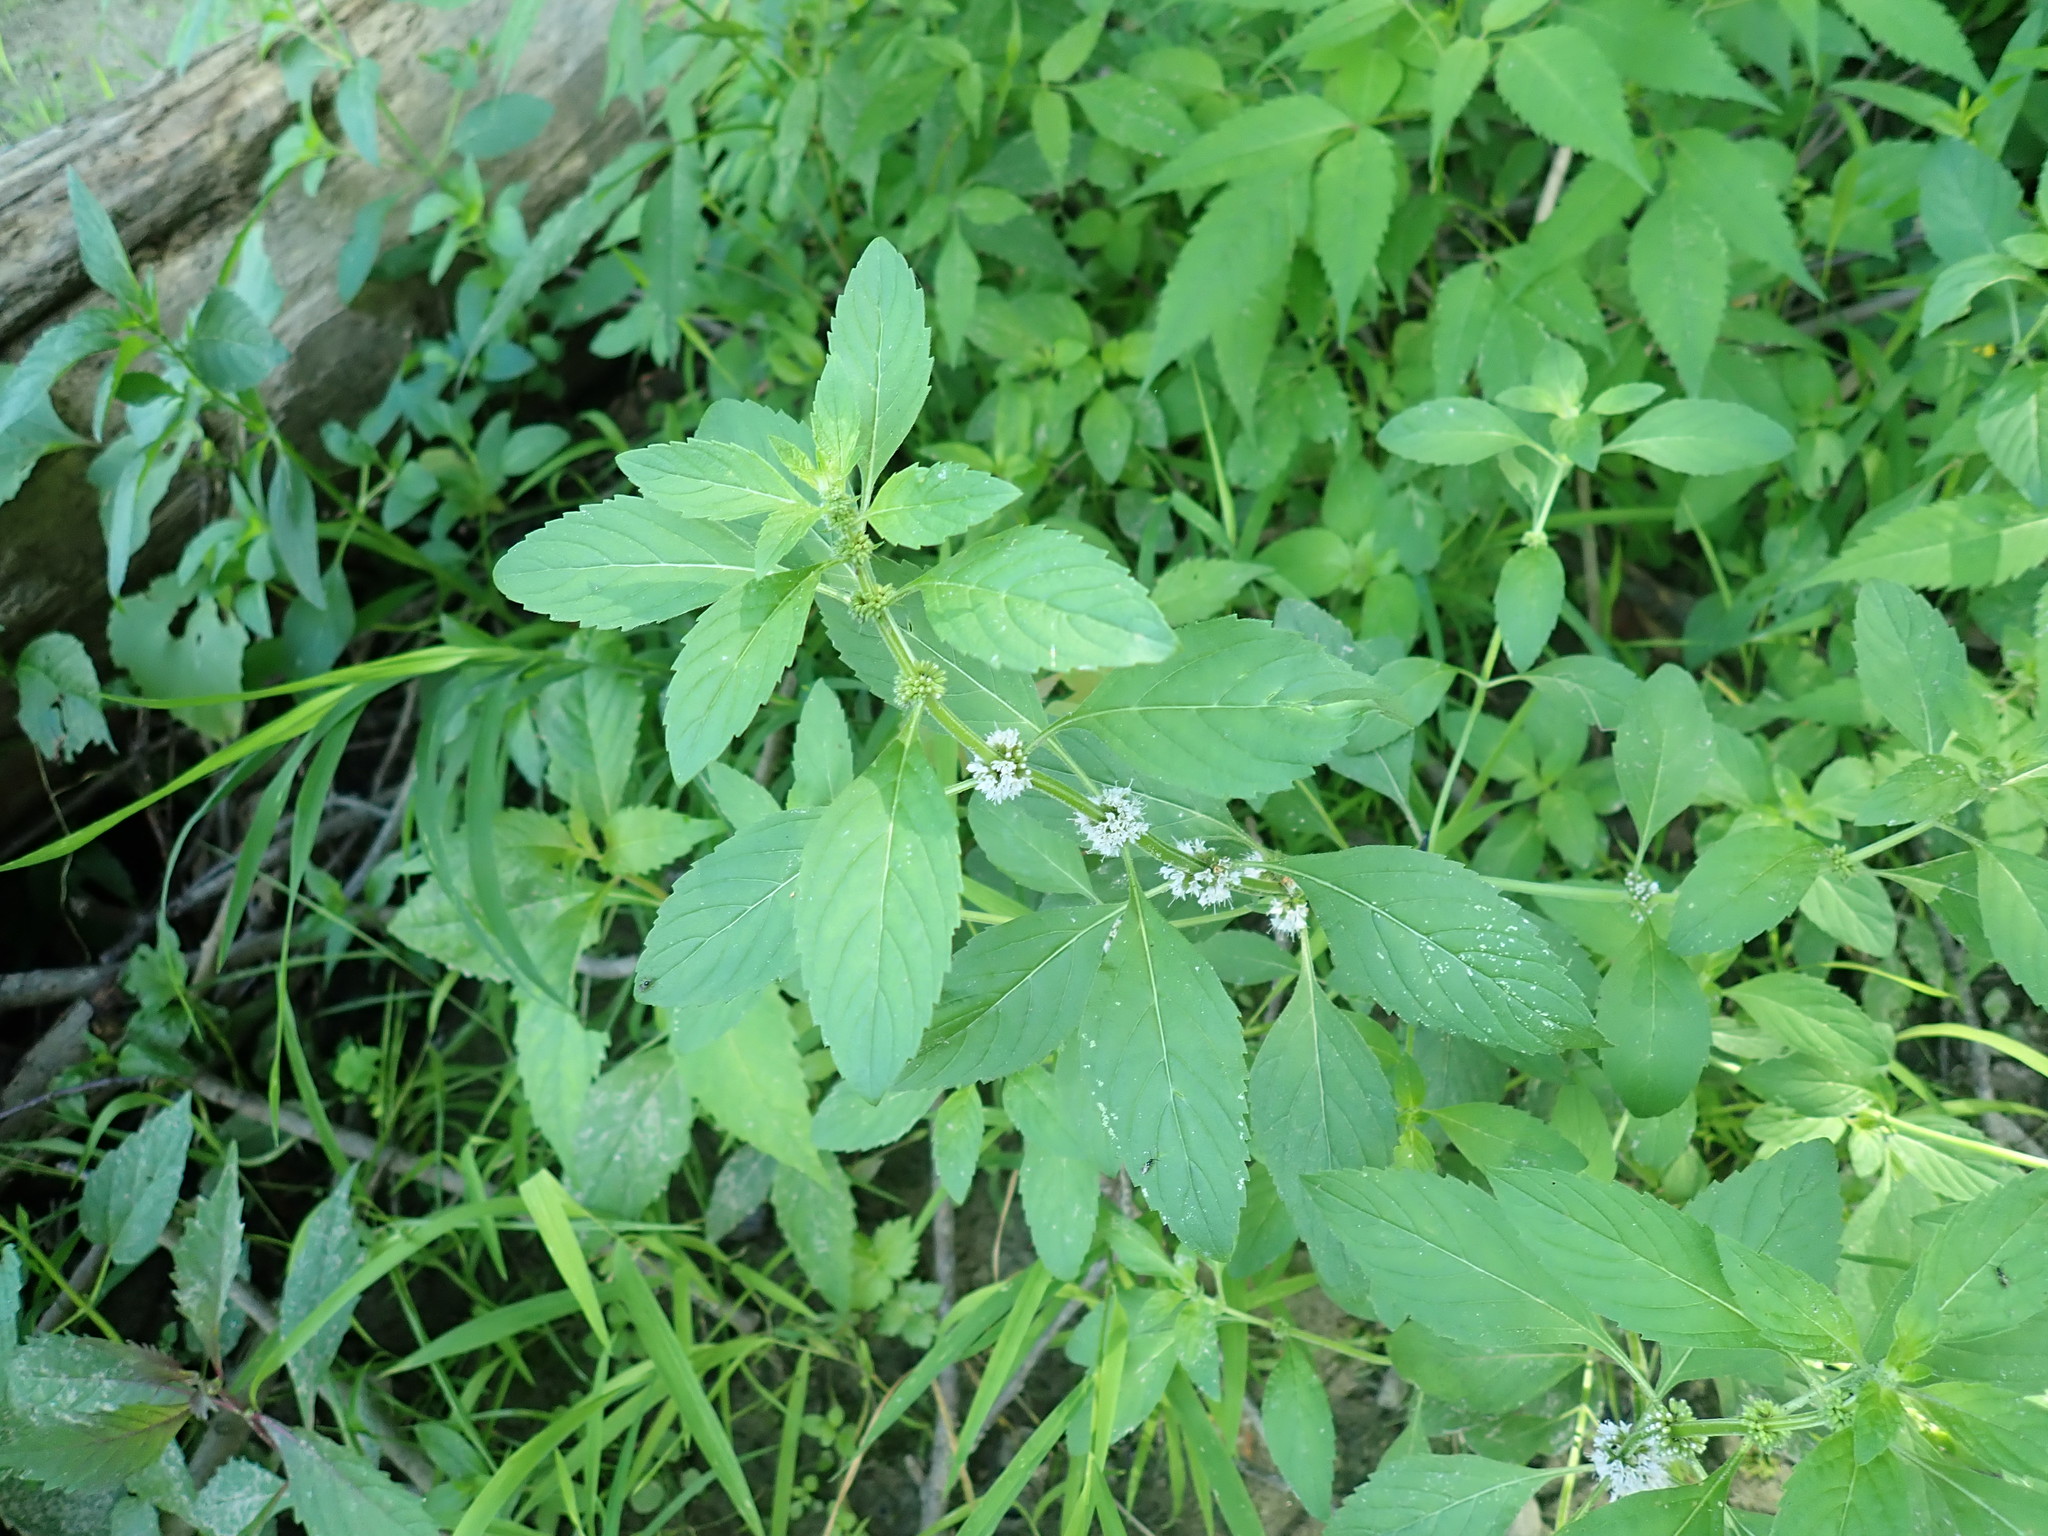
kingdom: Plantae
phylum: Tracheophyta
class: Magnoliopsida
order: Lamiales
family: Lamiaceae
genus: Mentha
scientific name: Mentha arvensis
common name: Corn mint
